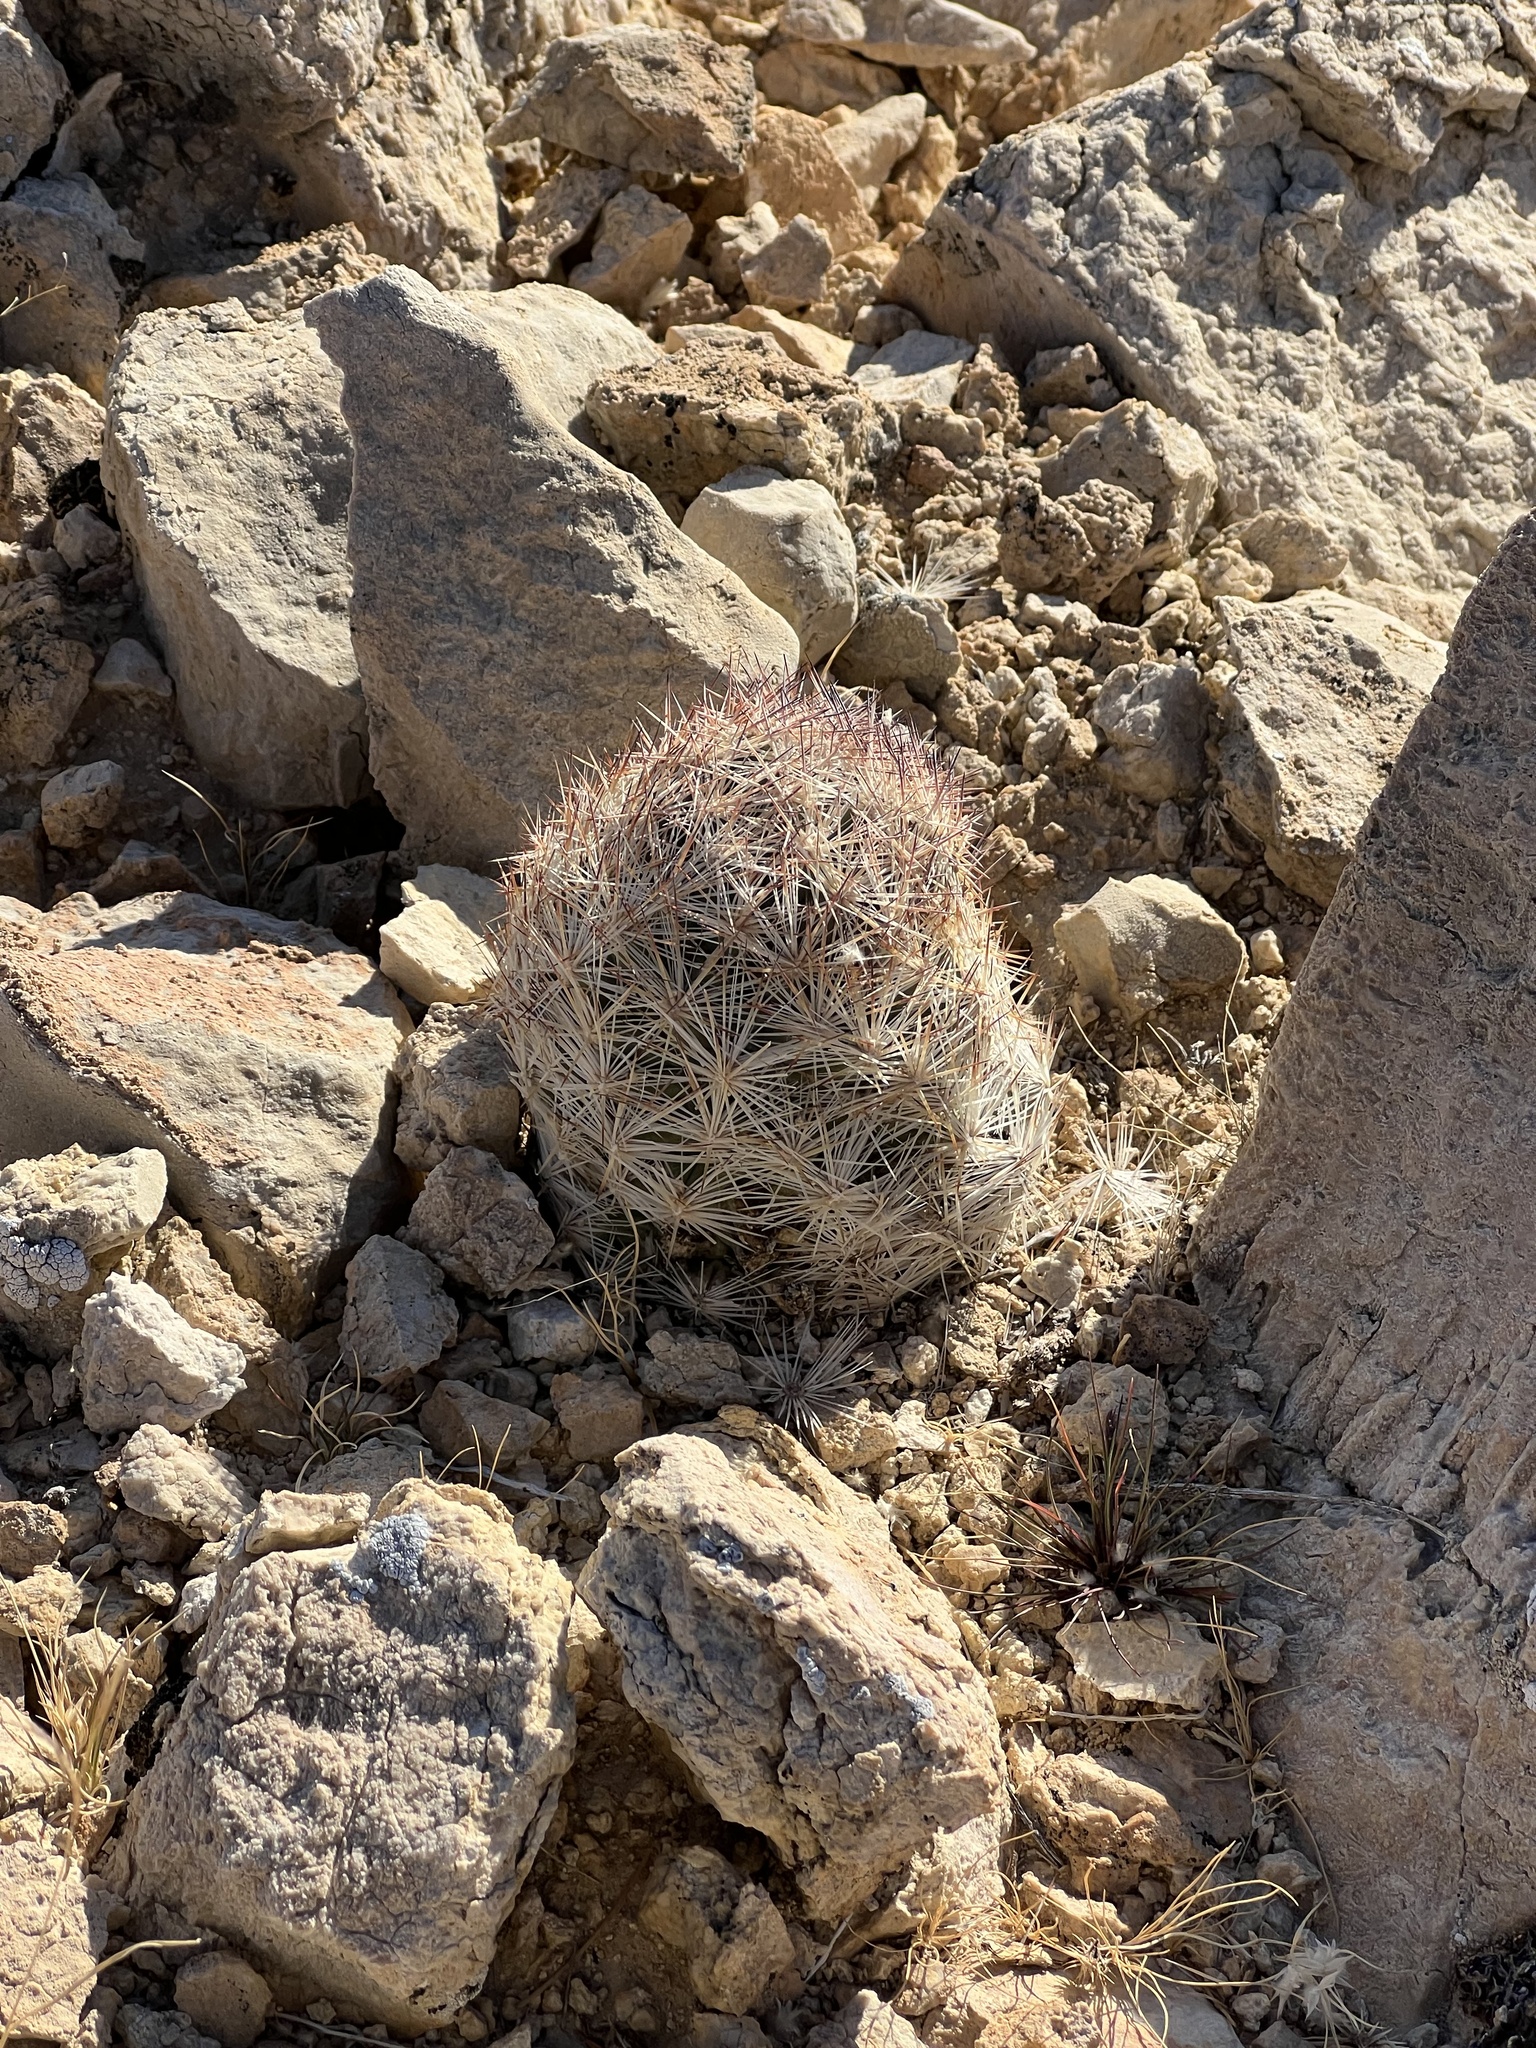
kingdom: Plantae
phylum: Tracheophyta
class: Magnoliopsida
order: Caryophyllales
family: Cactaceae
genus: Pelecyphora
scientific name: Pelecyphora dasyacantha
